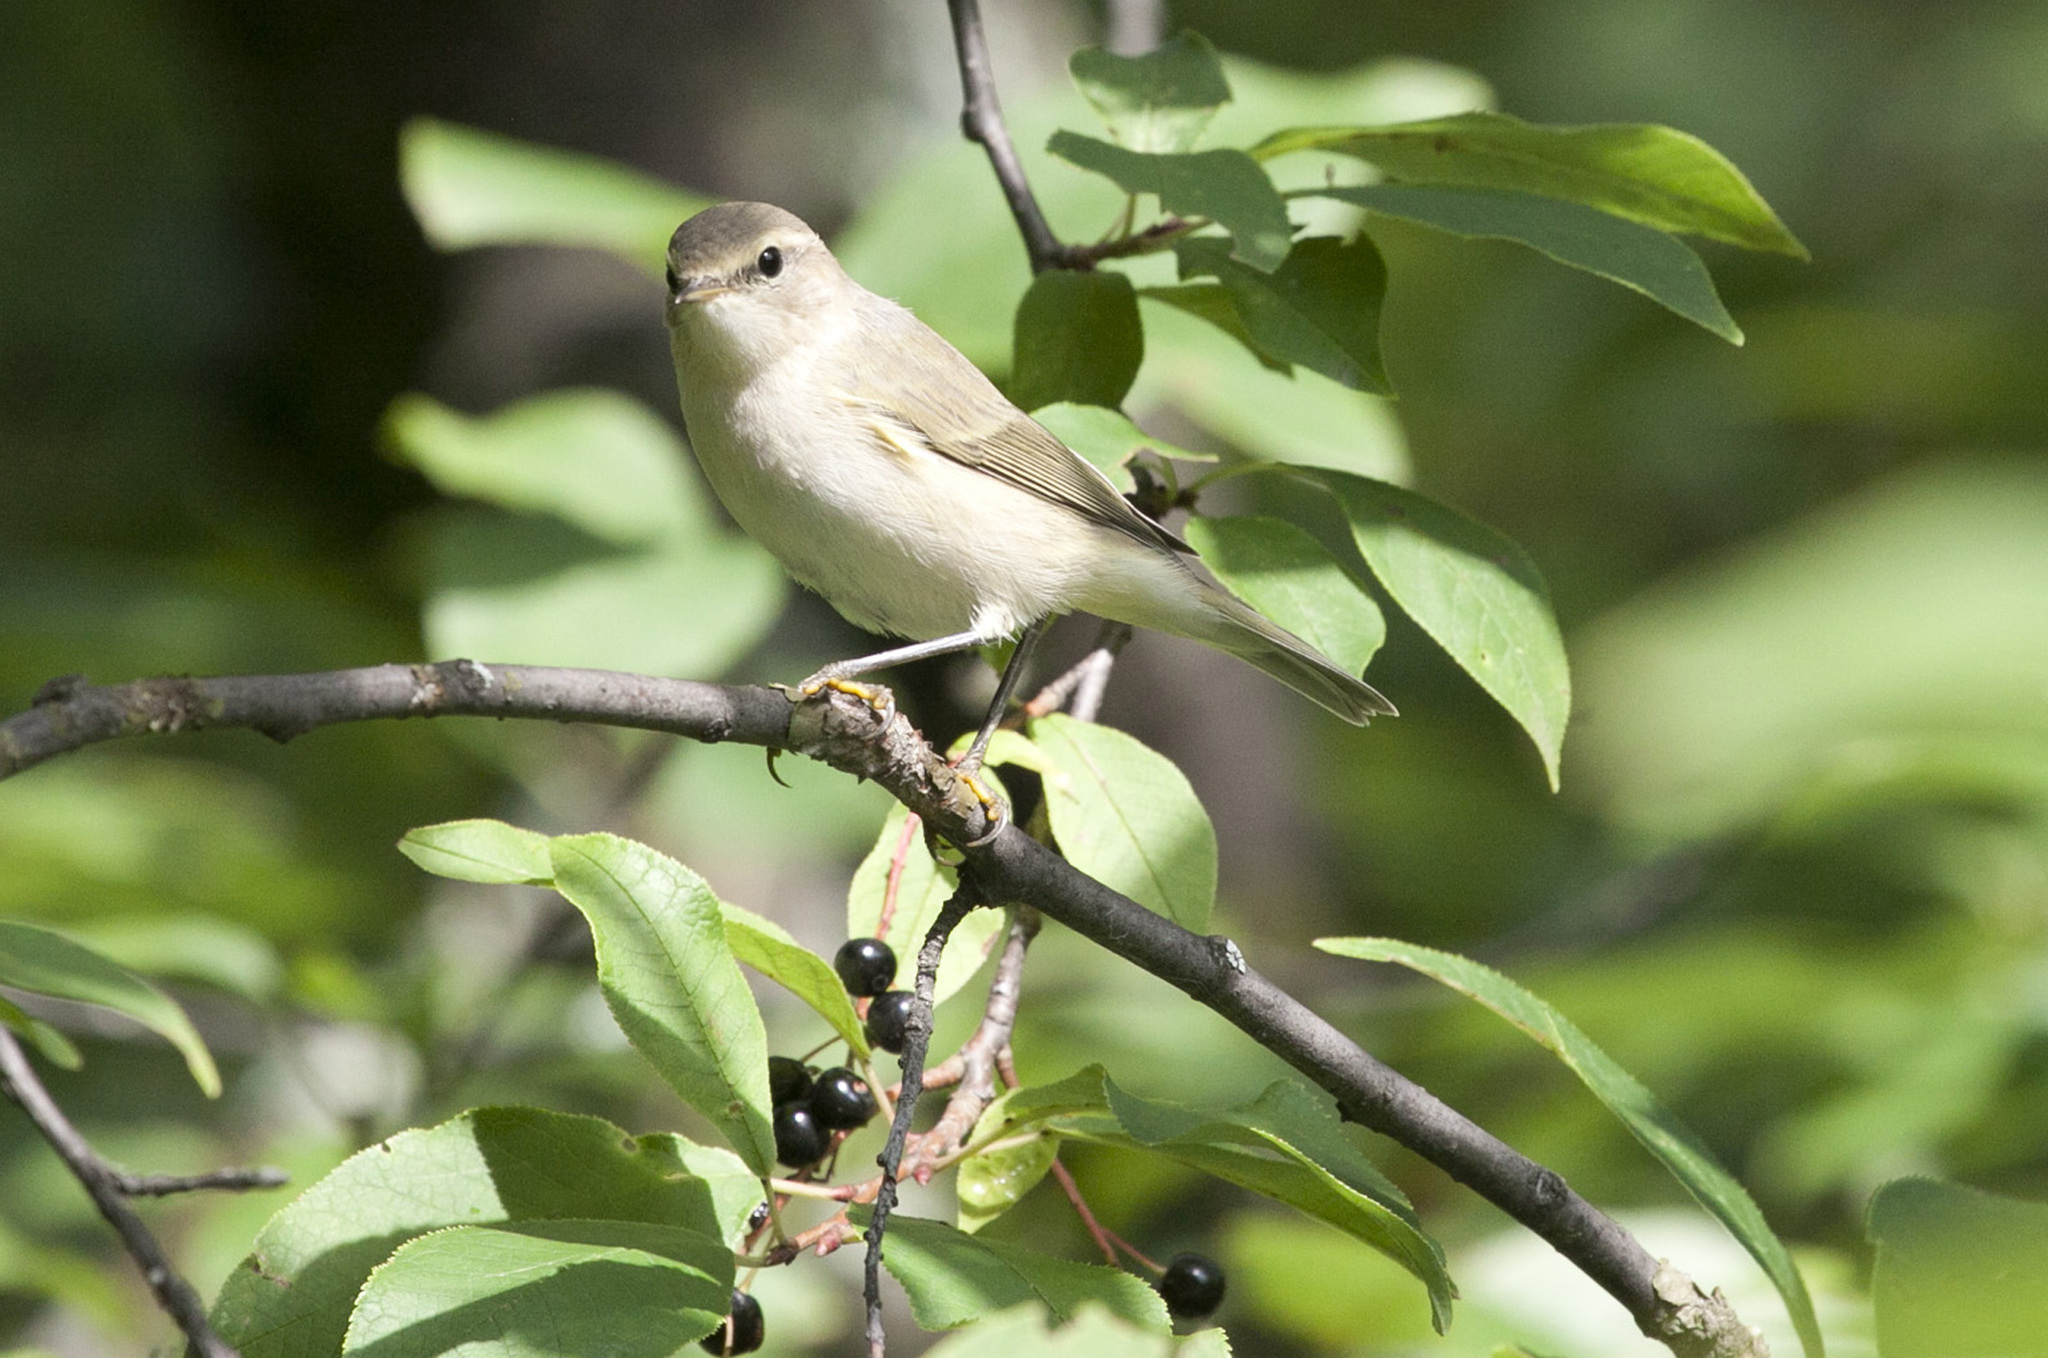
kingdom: Animalia
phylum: Chordata
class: Aves
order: Passeriformes
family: Phylloscopidae
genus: Phylloscopus
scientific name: Phylloscopus collybita
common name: Common chiffchaff
